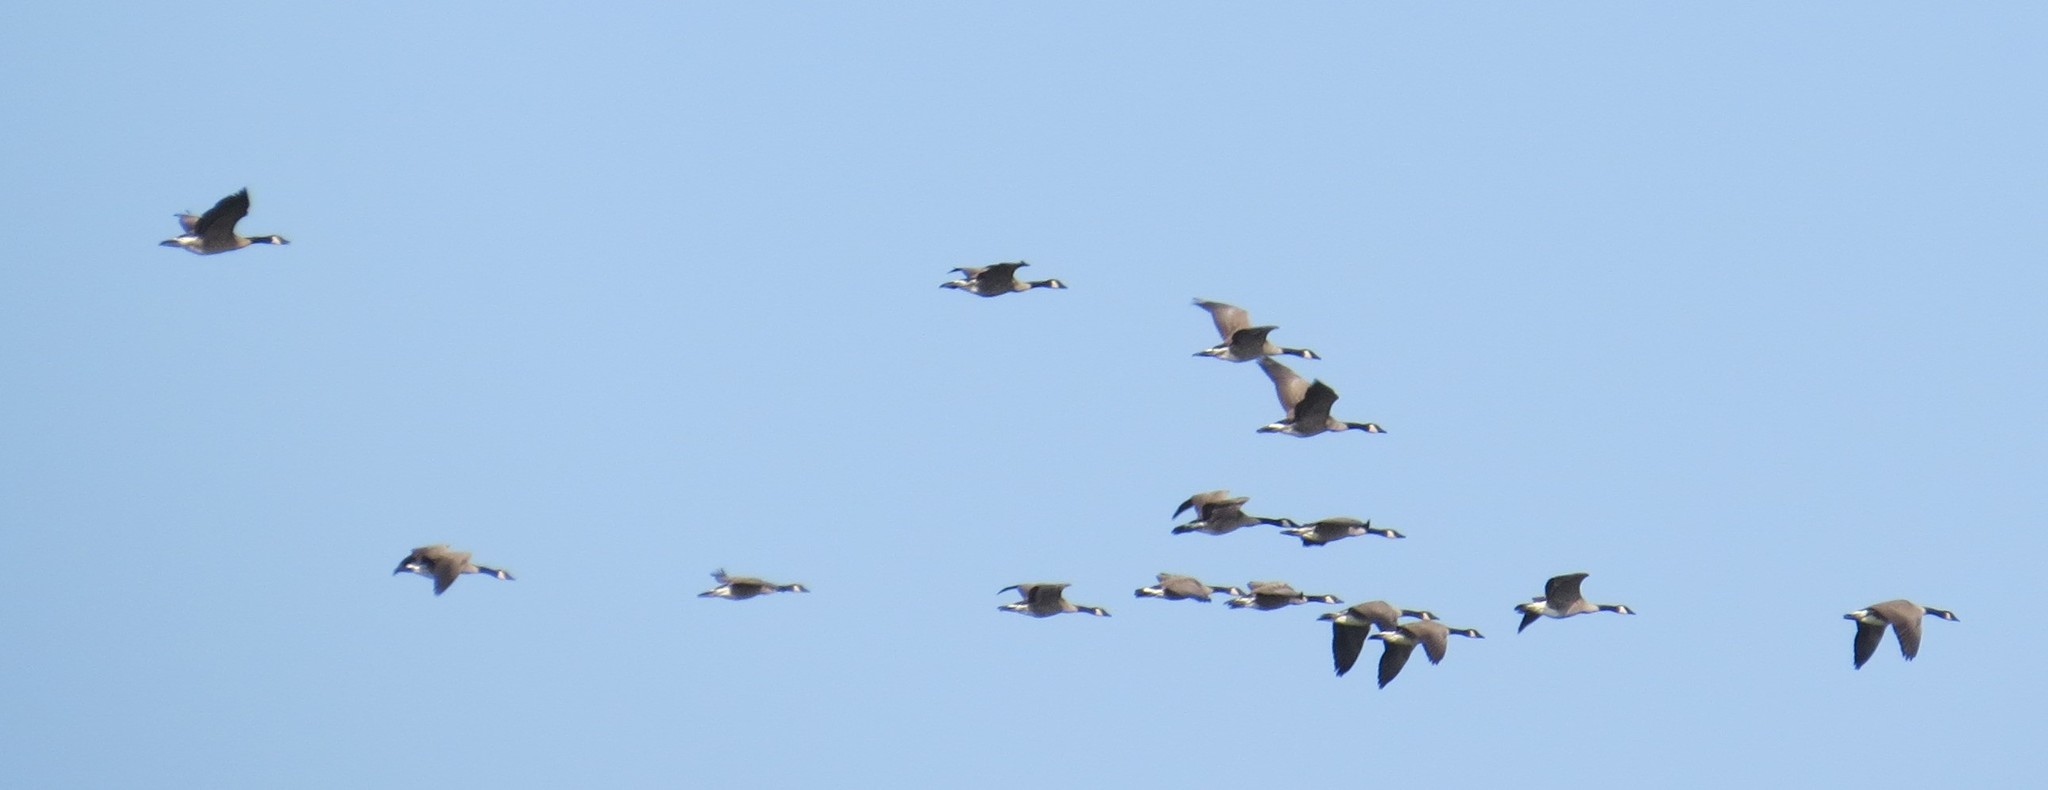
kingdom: Animalia
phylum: Chordata
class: Aves
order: Anseriformes
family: Anatidae
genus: Branta
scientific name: Branta canadensis
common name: Canada goose
